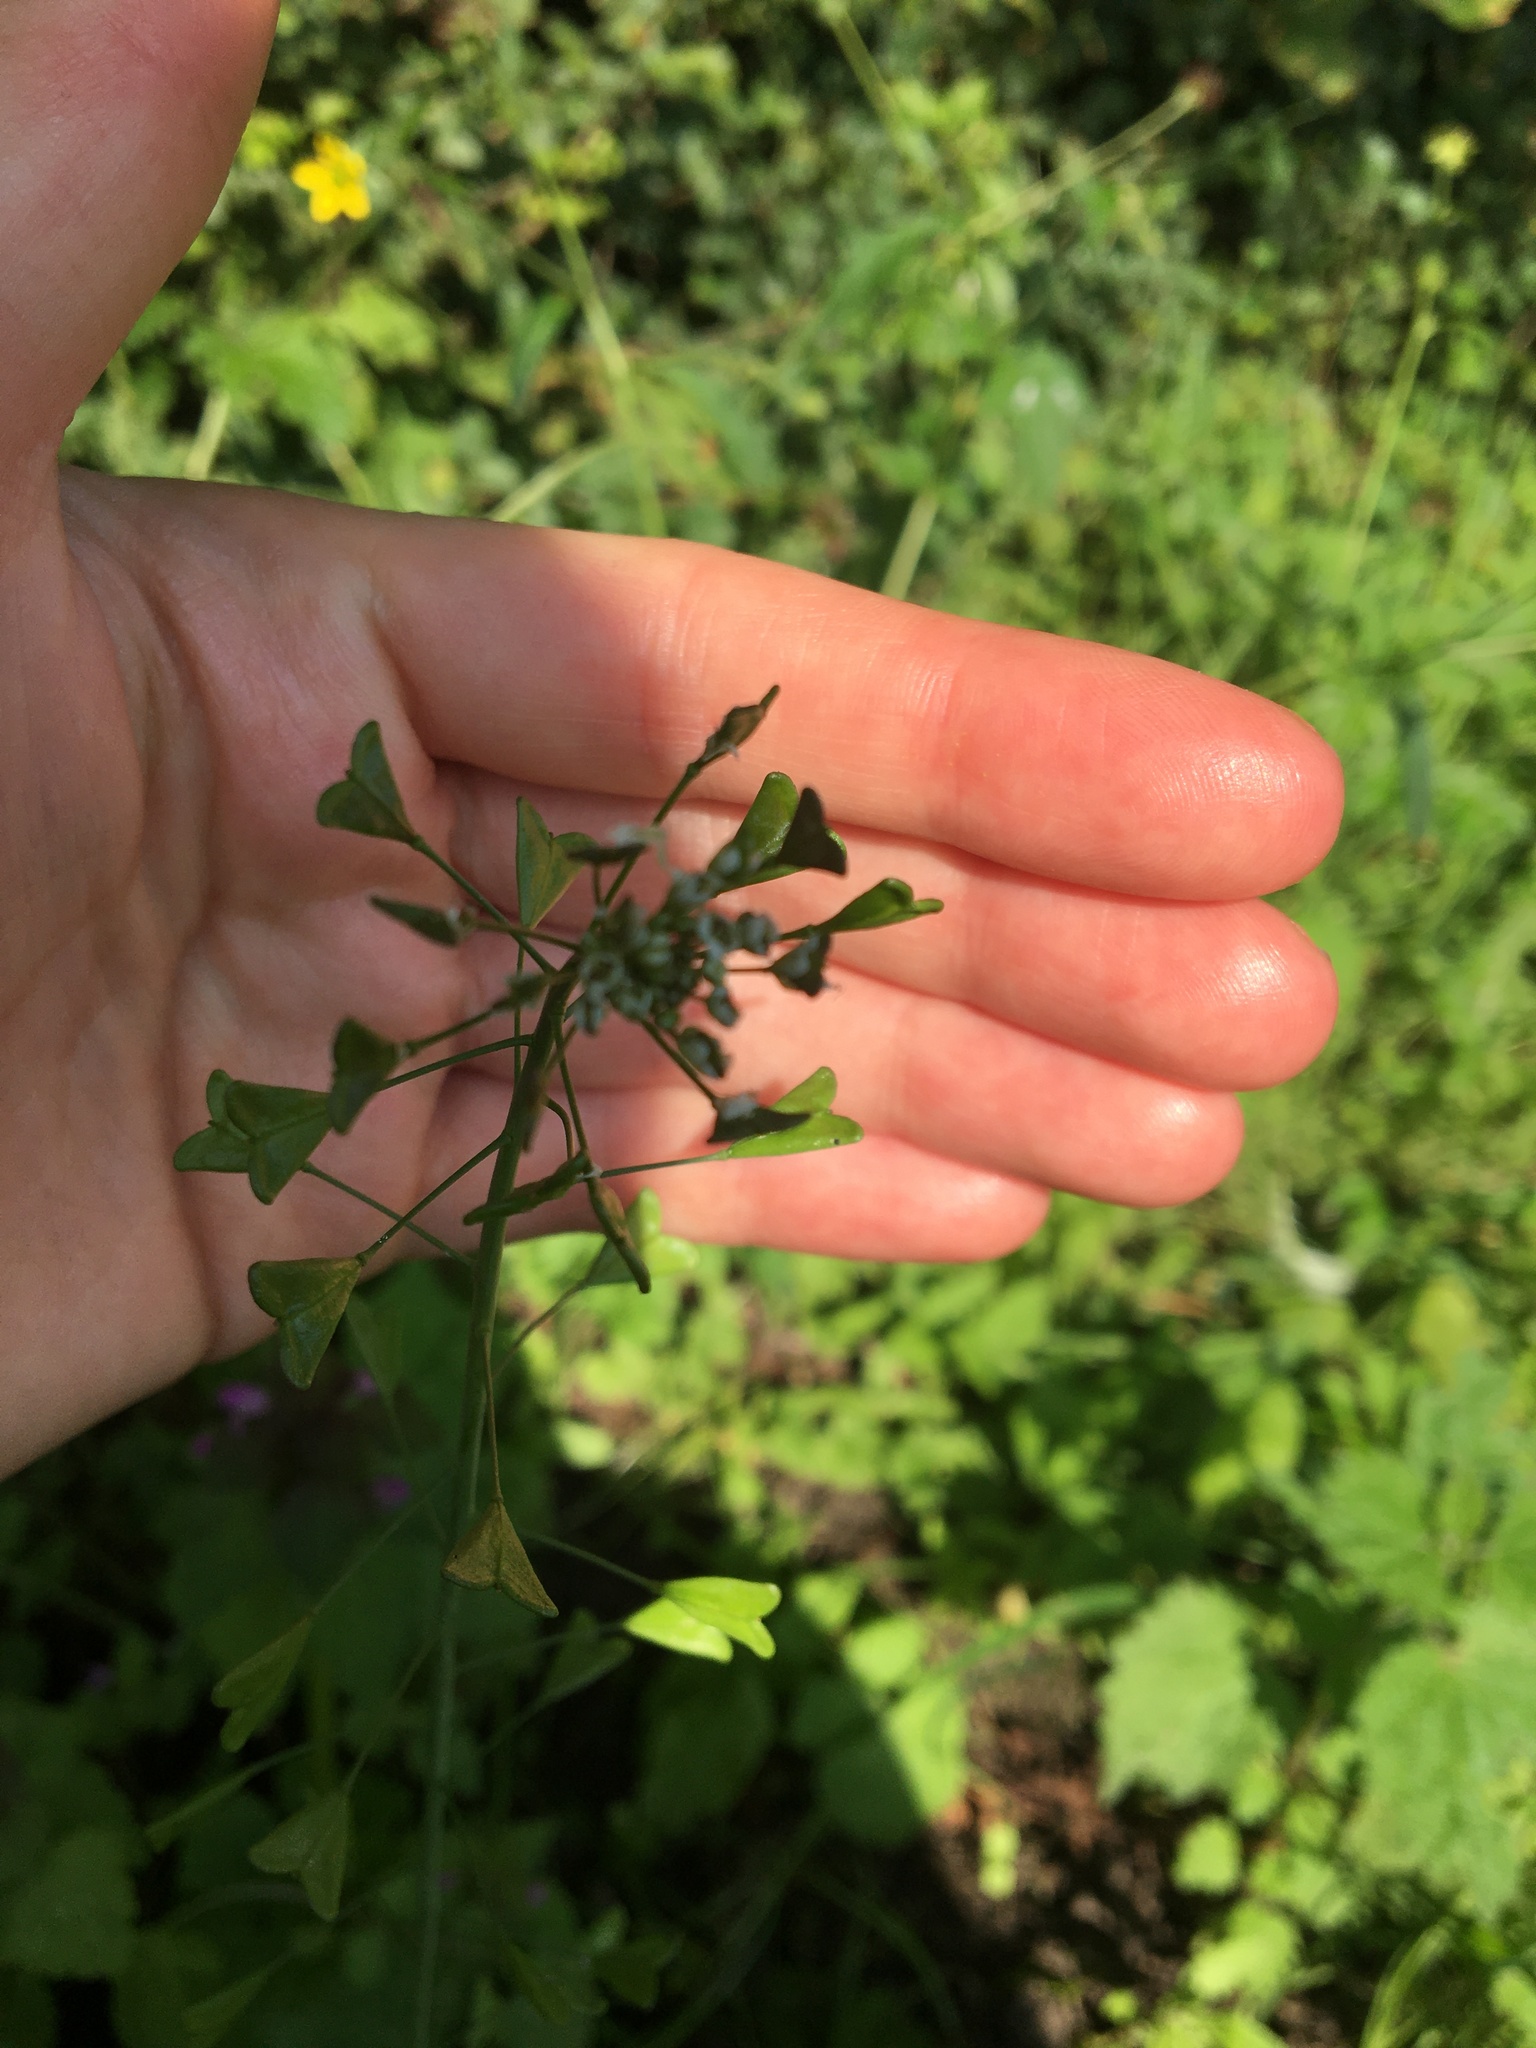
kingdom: Plantae
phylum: Tracheophyta
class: Magnoliopsida
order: Brassicales
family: Brassicaceae
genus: Capsella
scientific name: Capsella bursa-pastoris
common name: Shepherd's purse
